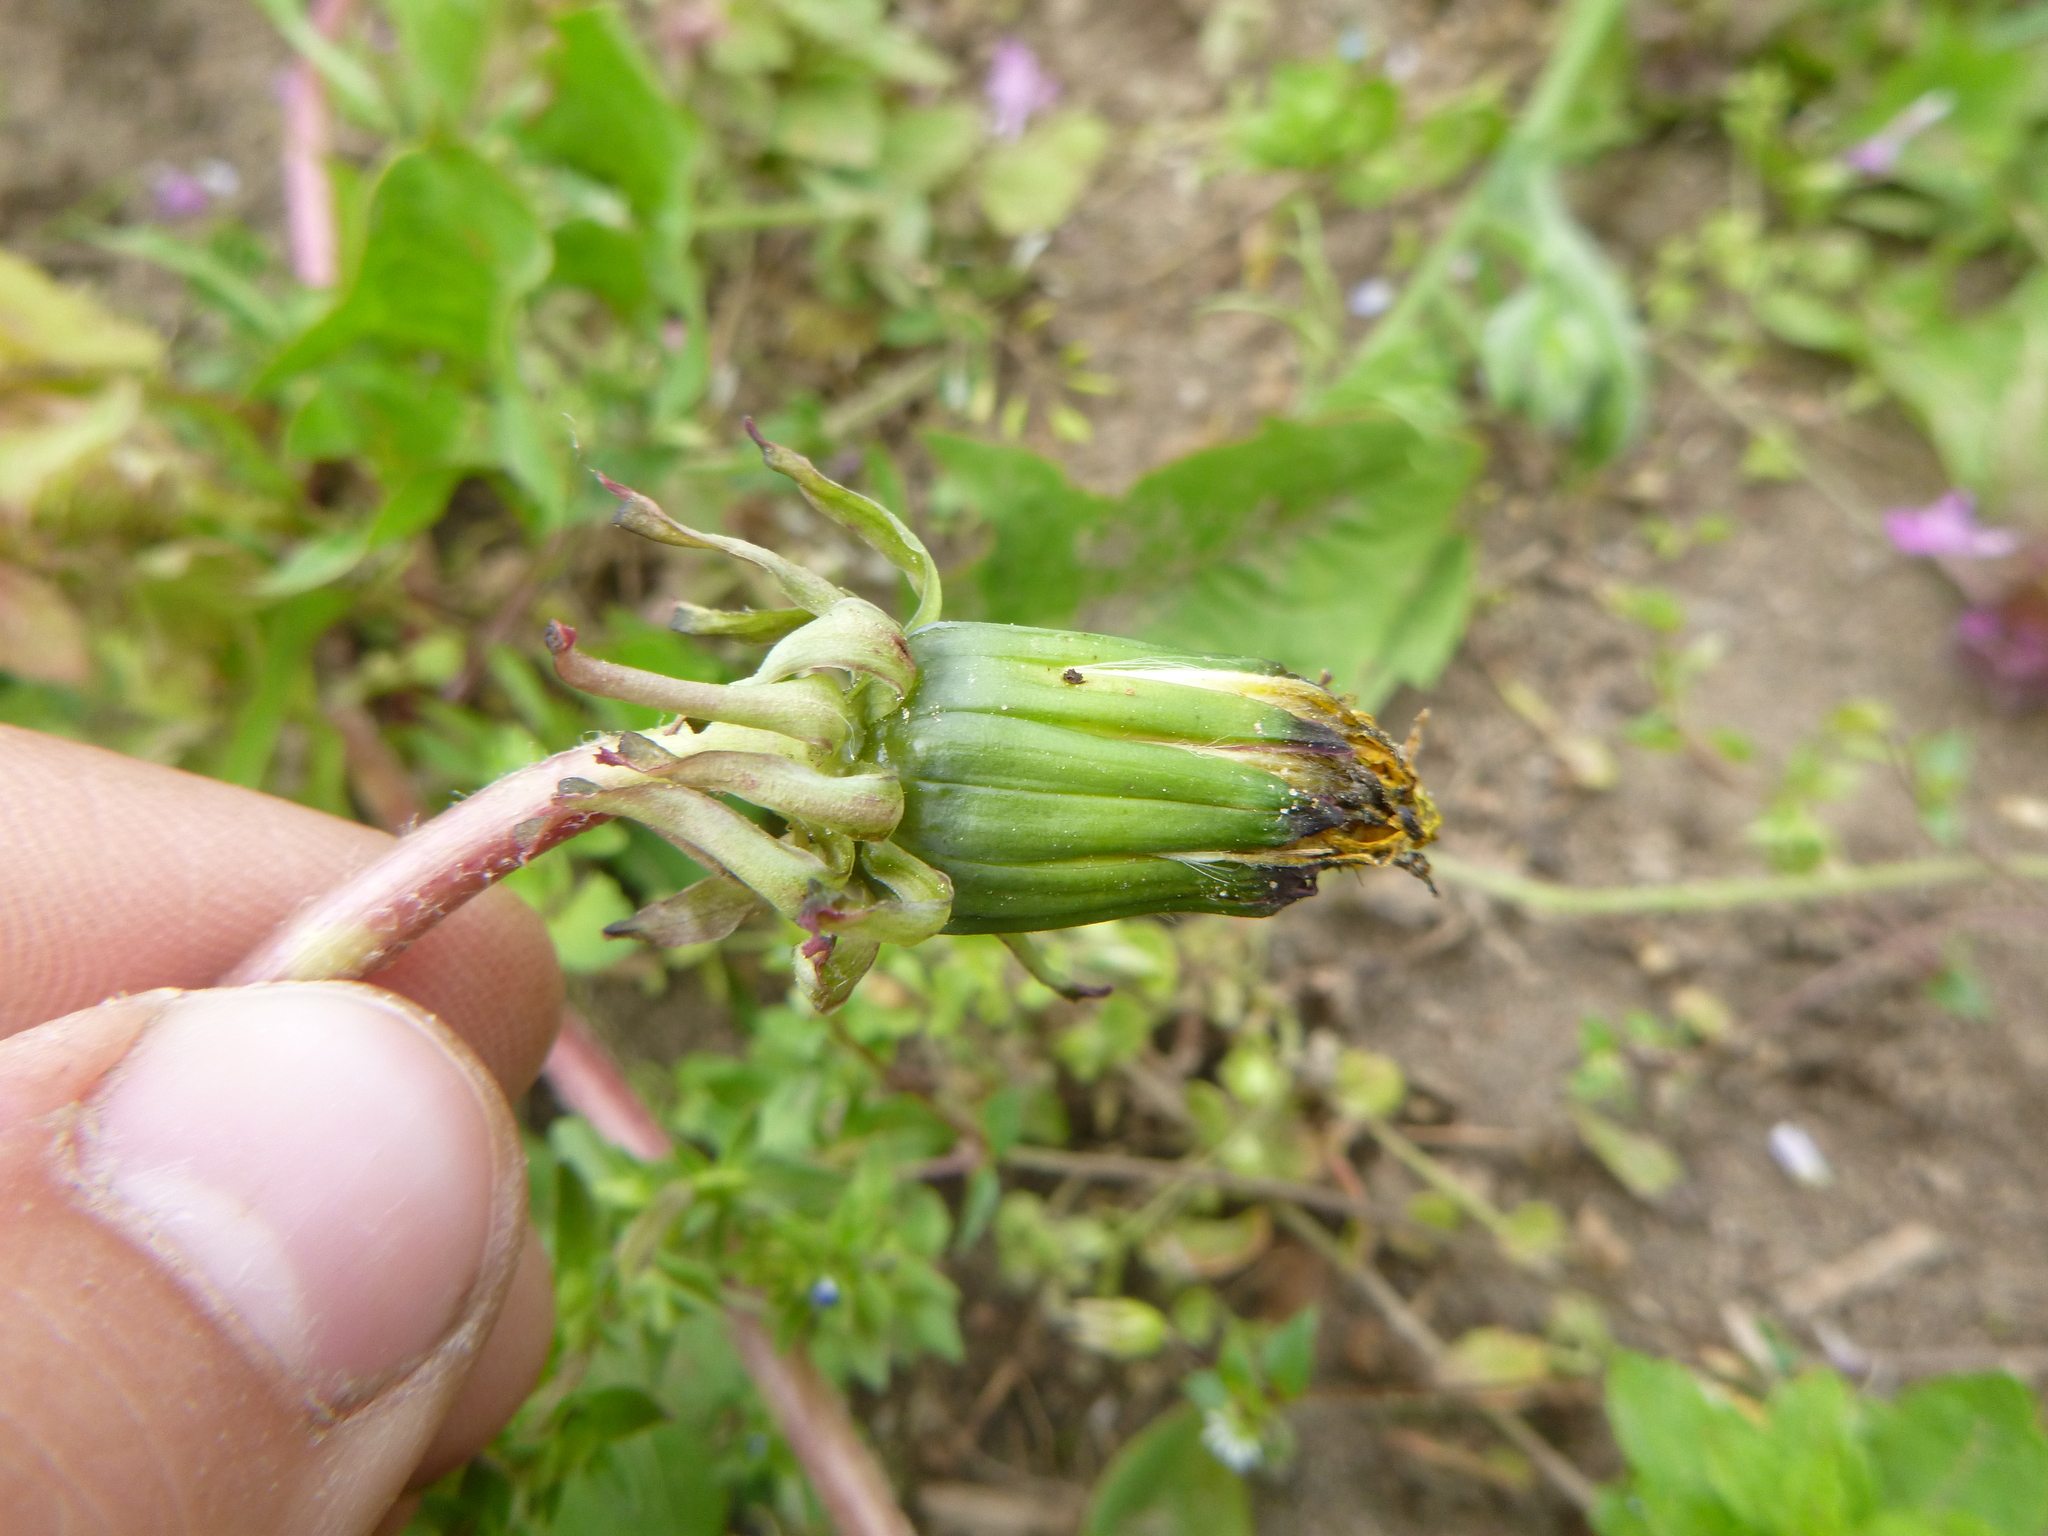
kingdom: Plantae
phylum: Tracheophyta
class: Magnoliopsida
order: Asterales
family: Asteraceae
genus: Taraxacum
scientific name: Taraxacum officinale
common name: Common dandelion
